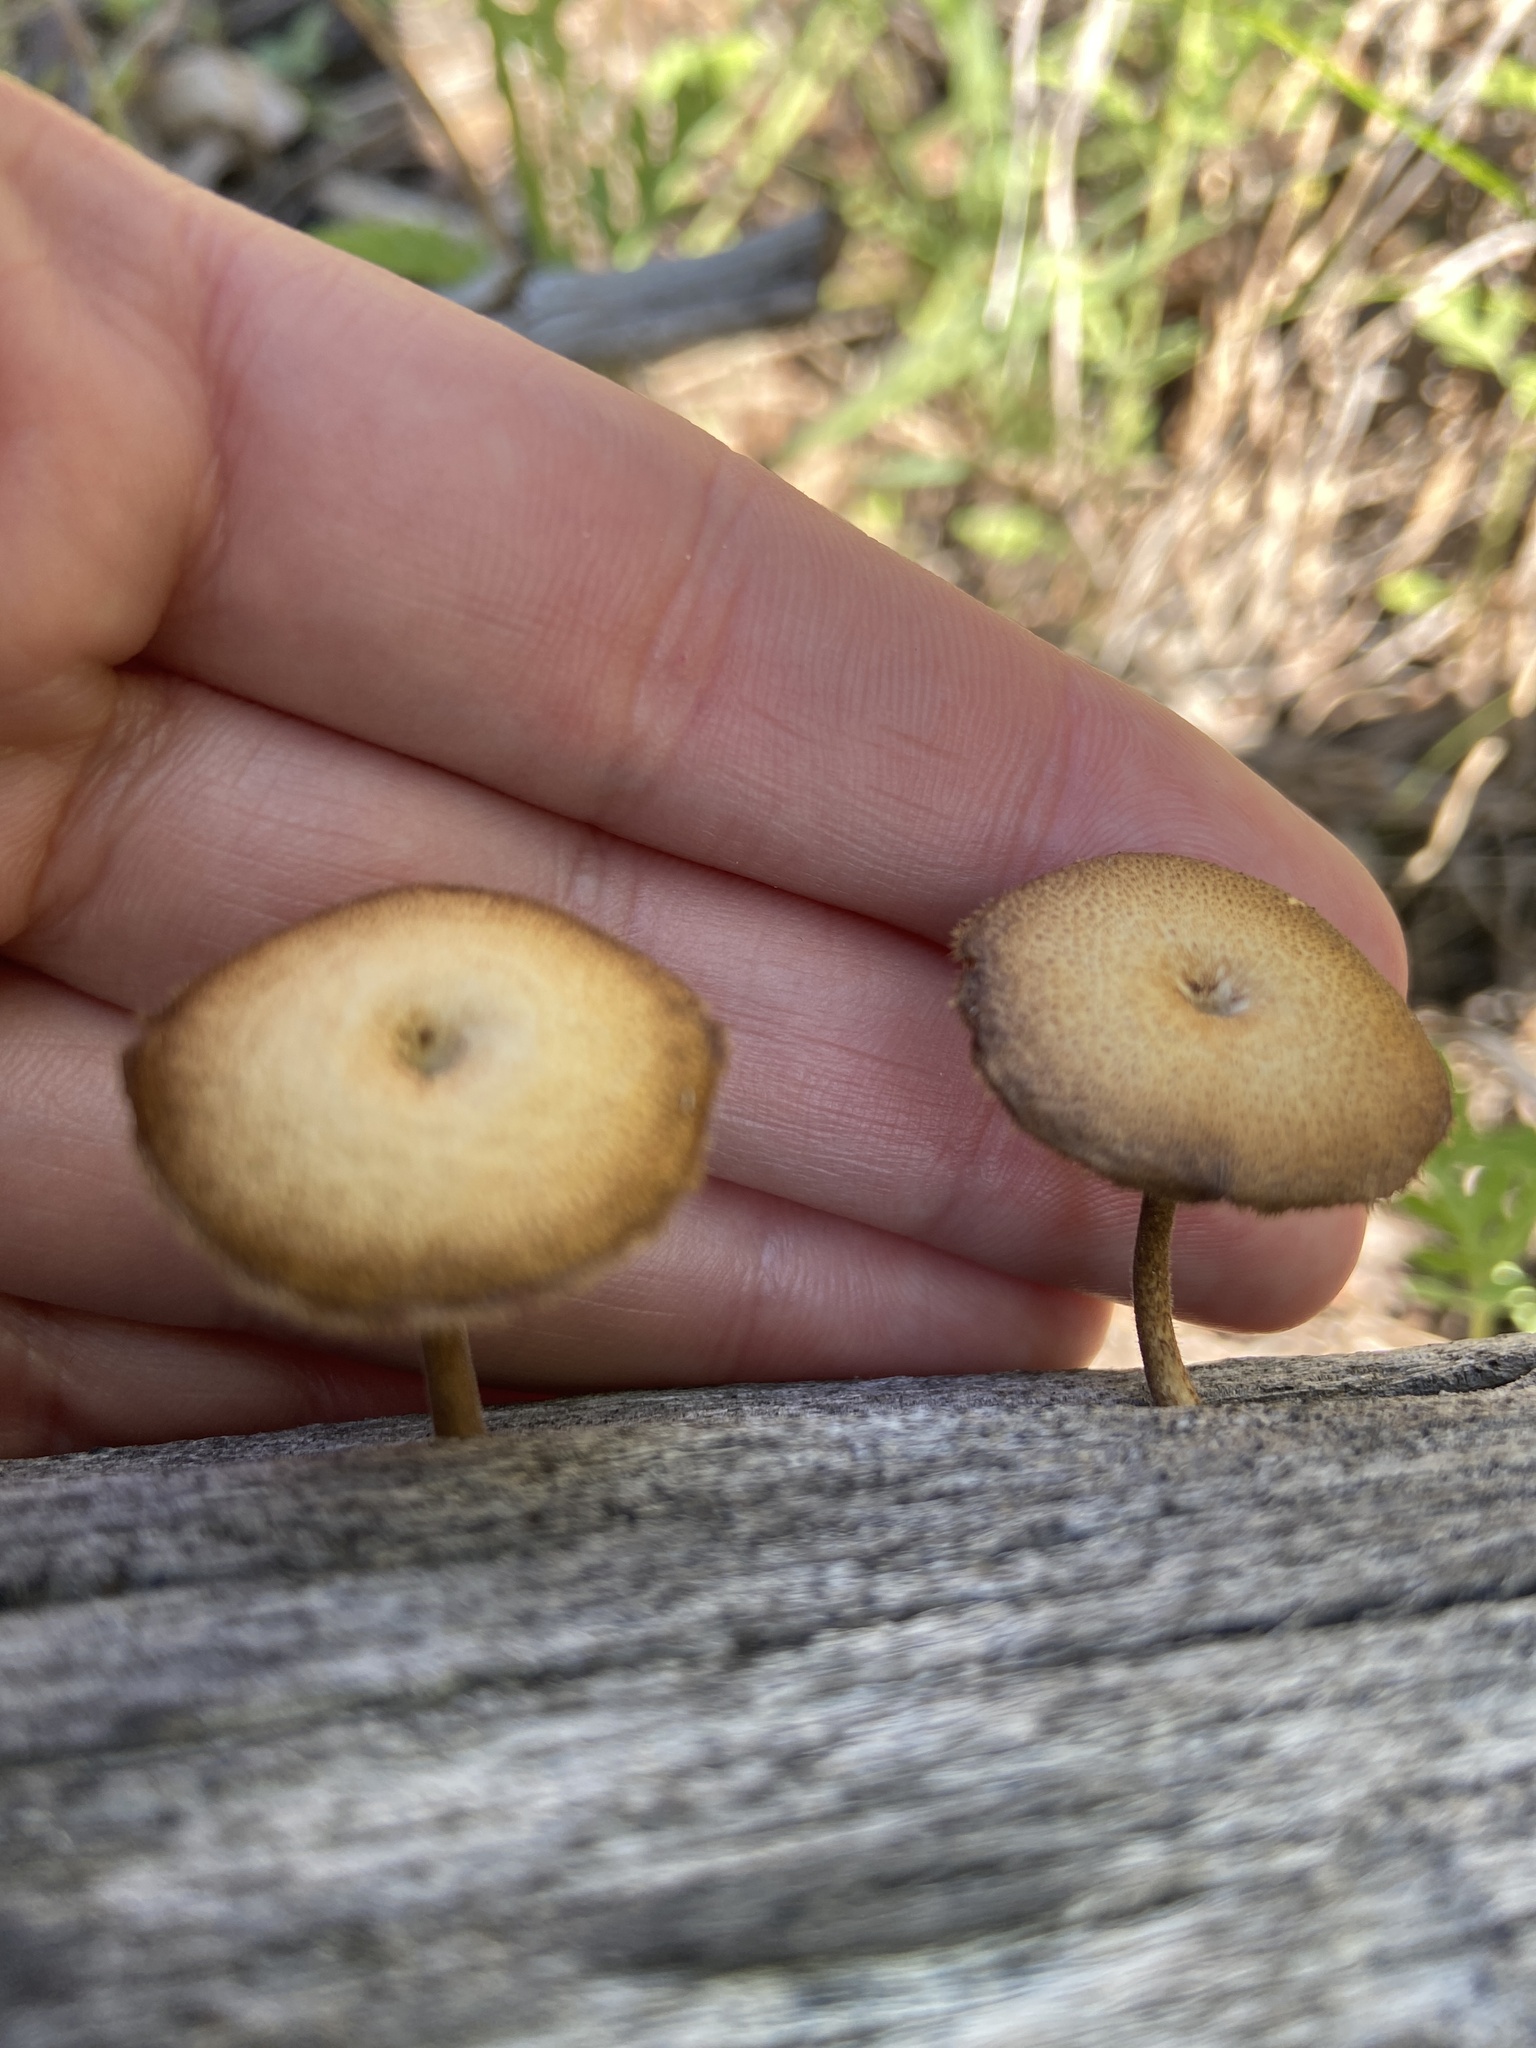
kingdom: Fungi
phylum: Basidiomycota
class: Agaricomycetes
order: Polyporales
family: Polyporaceae
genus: Lentinus
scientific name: Lentinus arcularius
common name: Spring polypore
